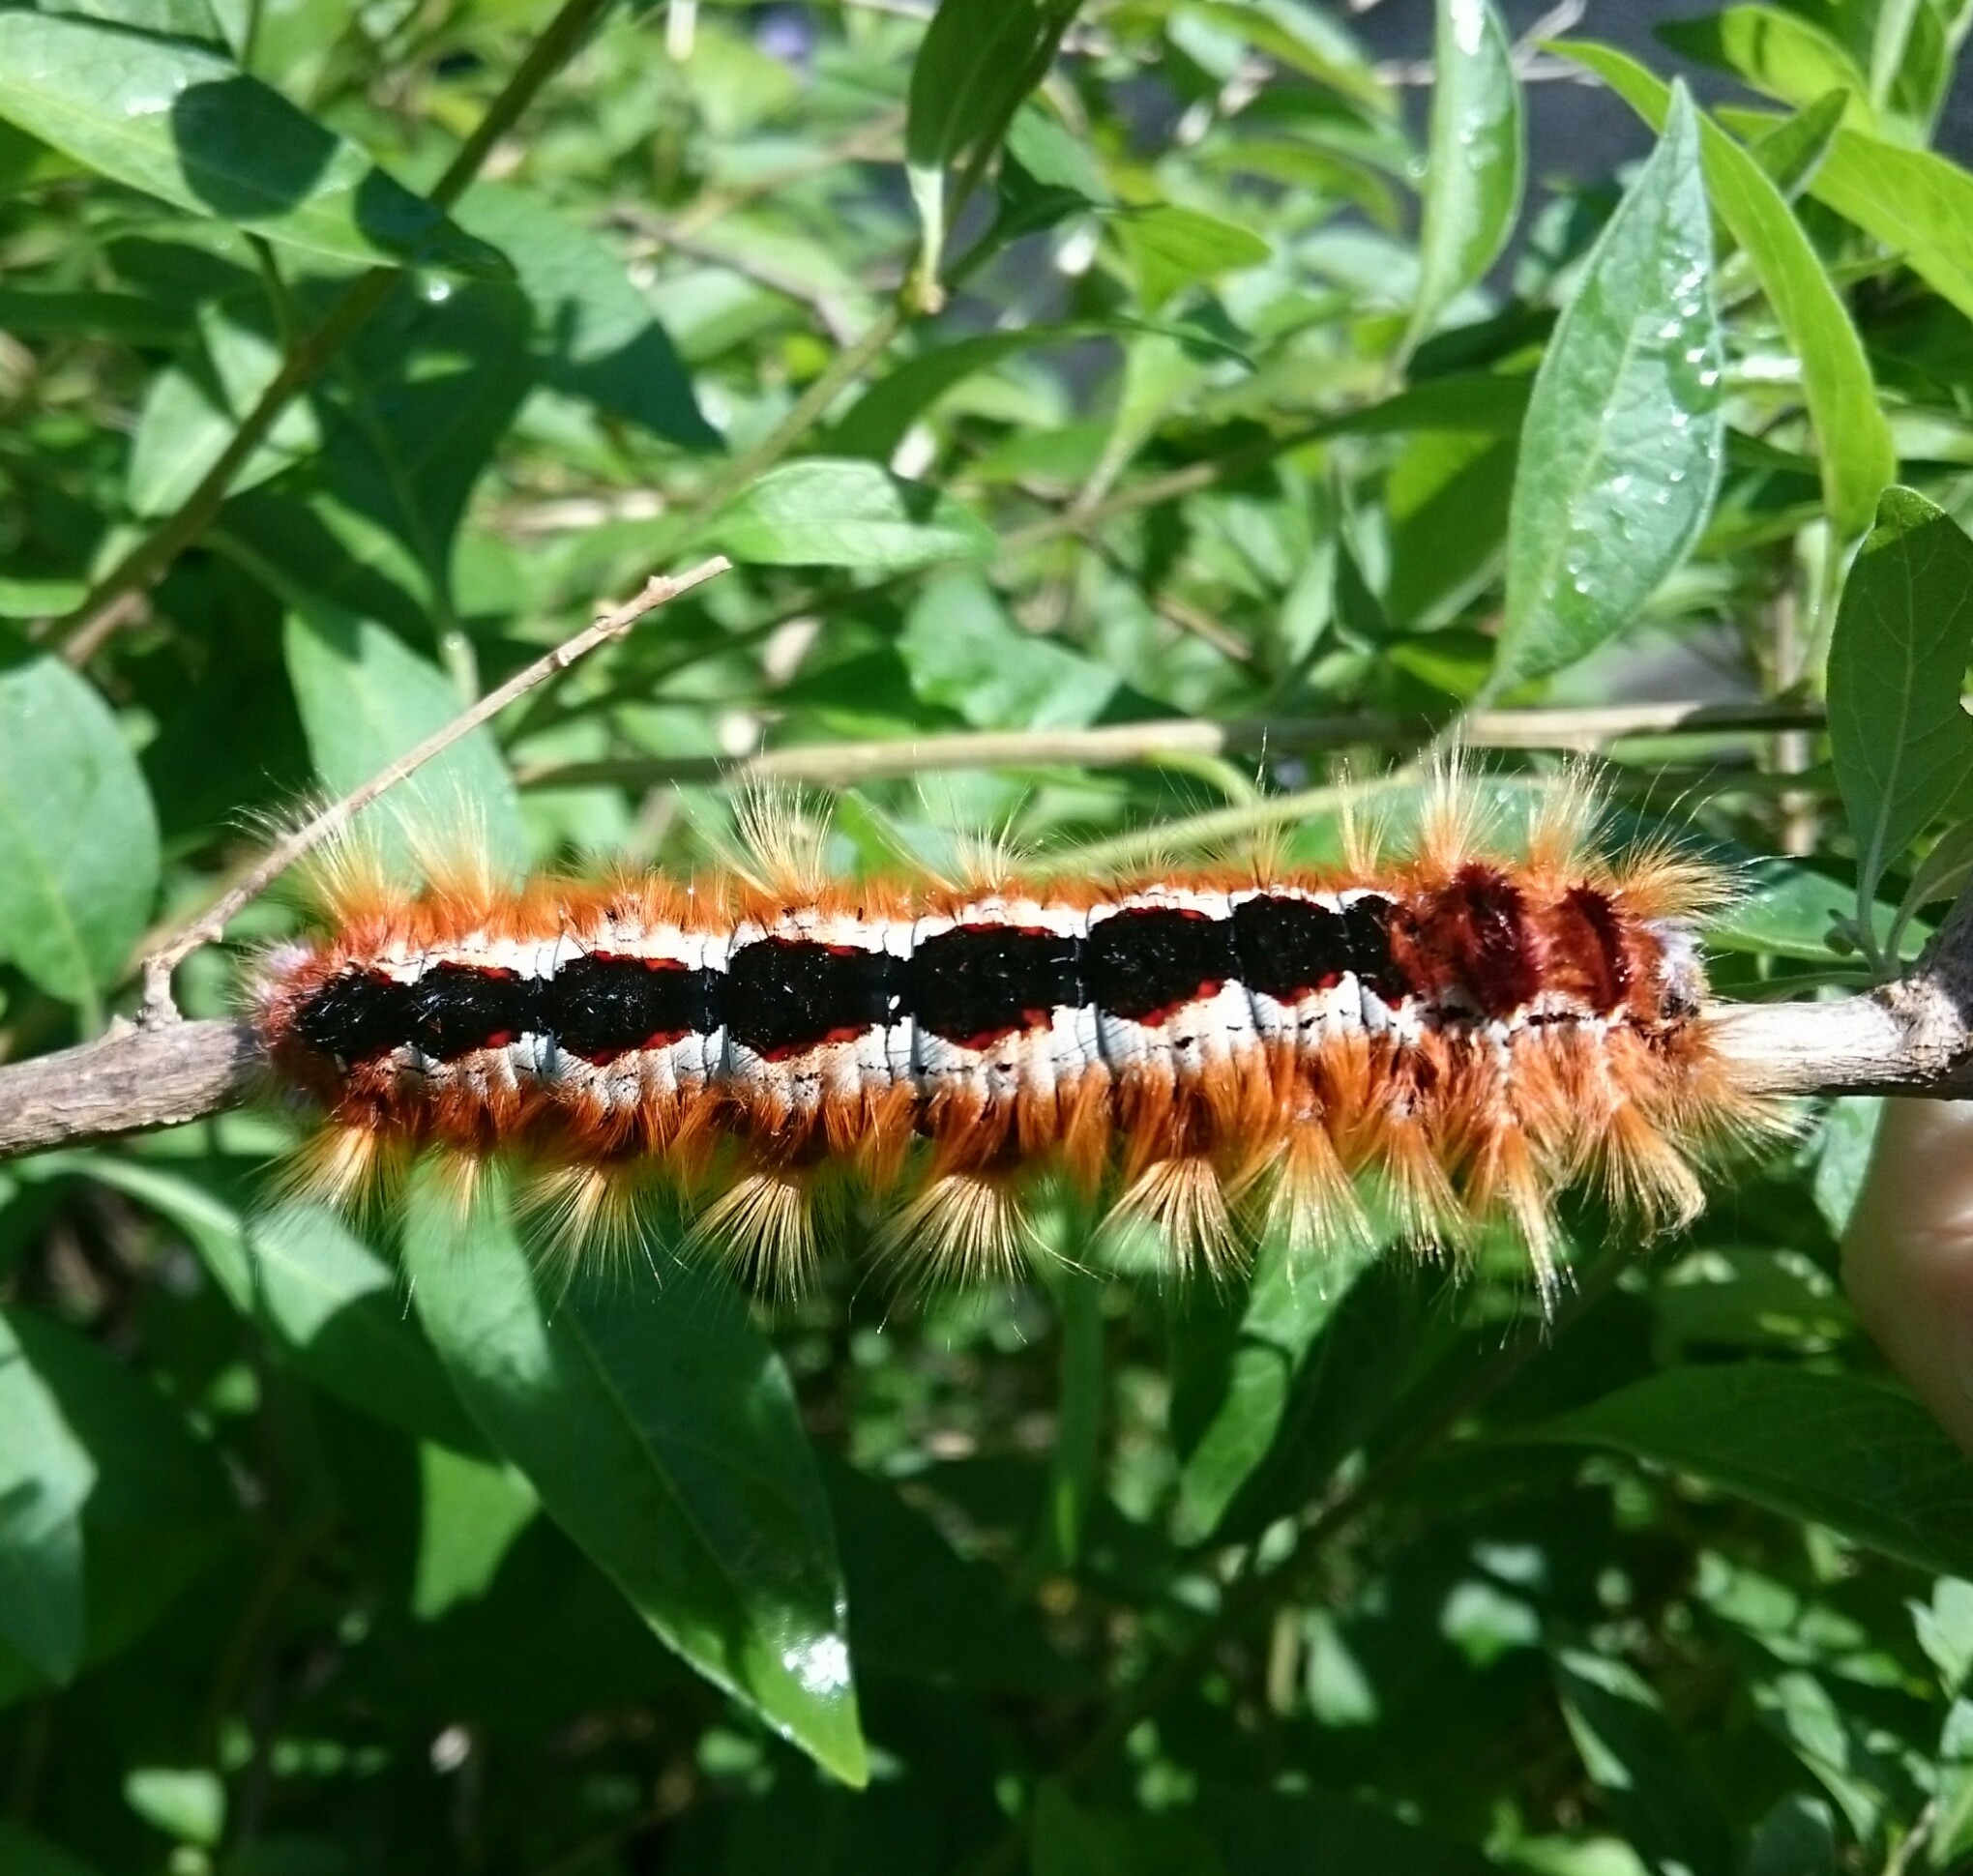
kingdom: Animalia
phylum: Arthropoda
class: Insecta
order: Lepidoptera
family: Lasiocampidae
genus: Eutricha
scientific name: Eutricha capensis
